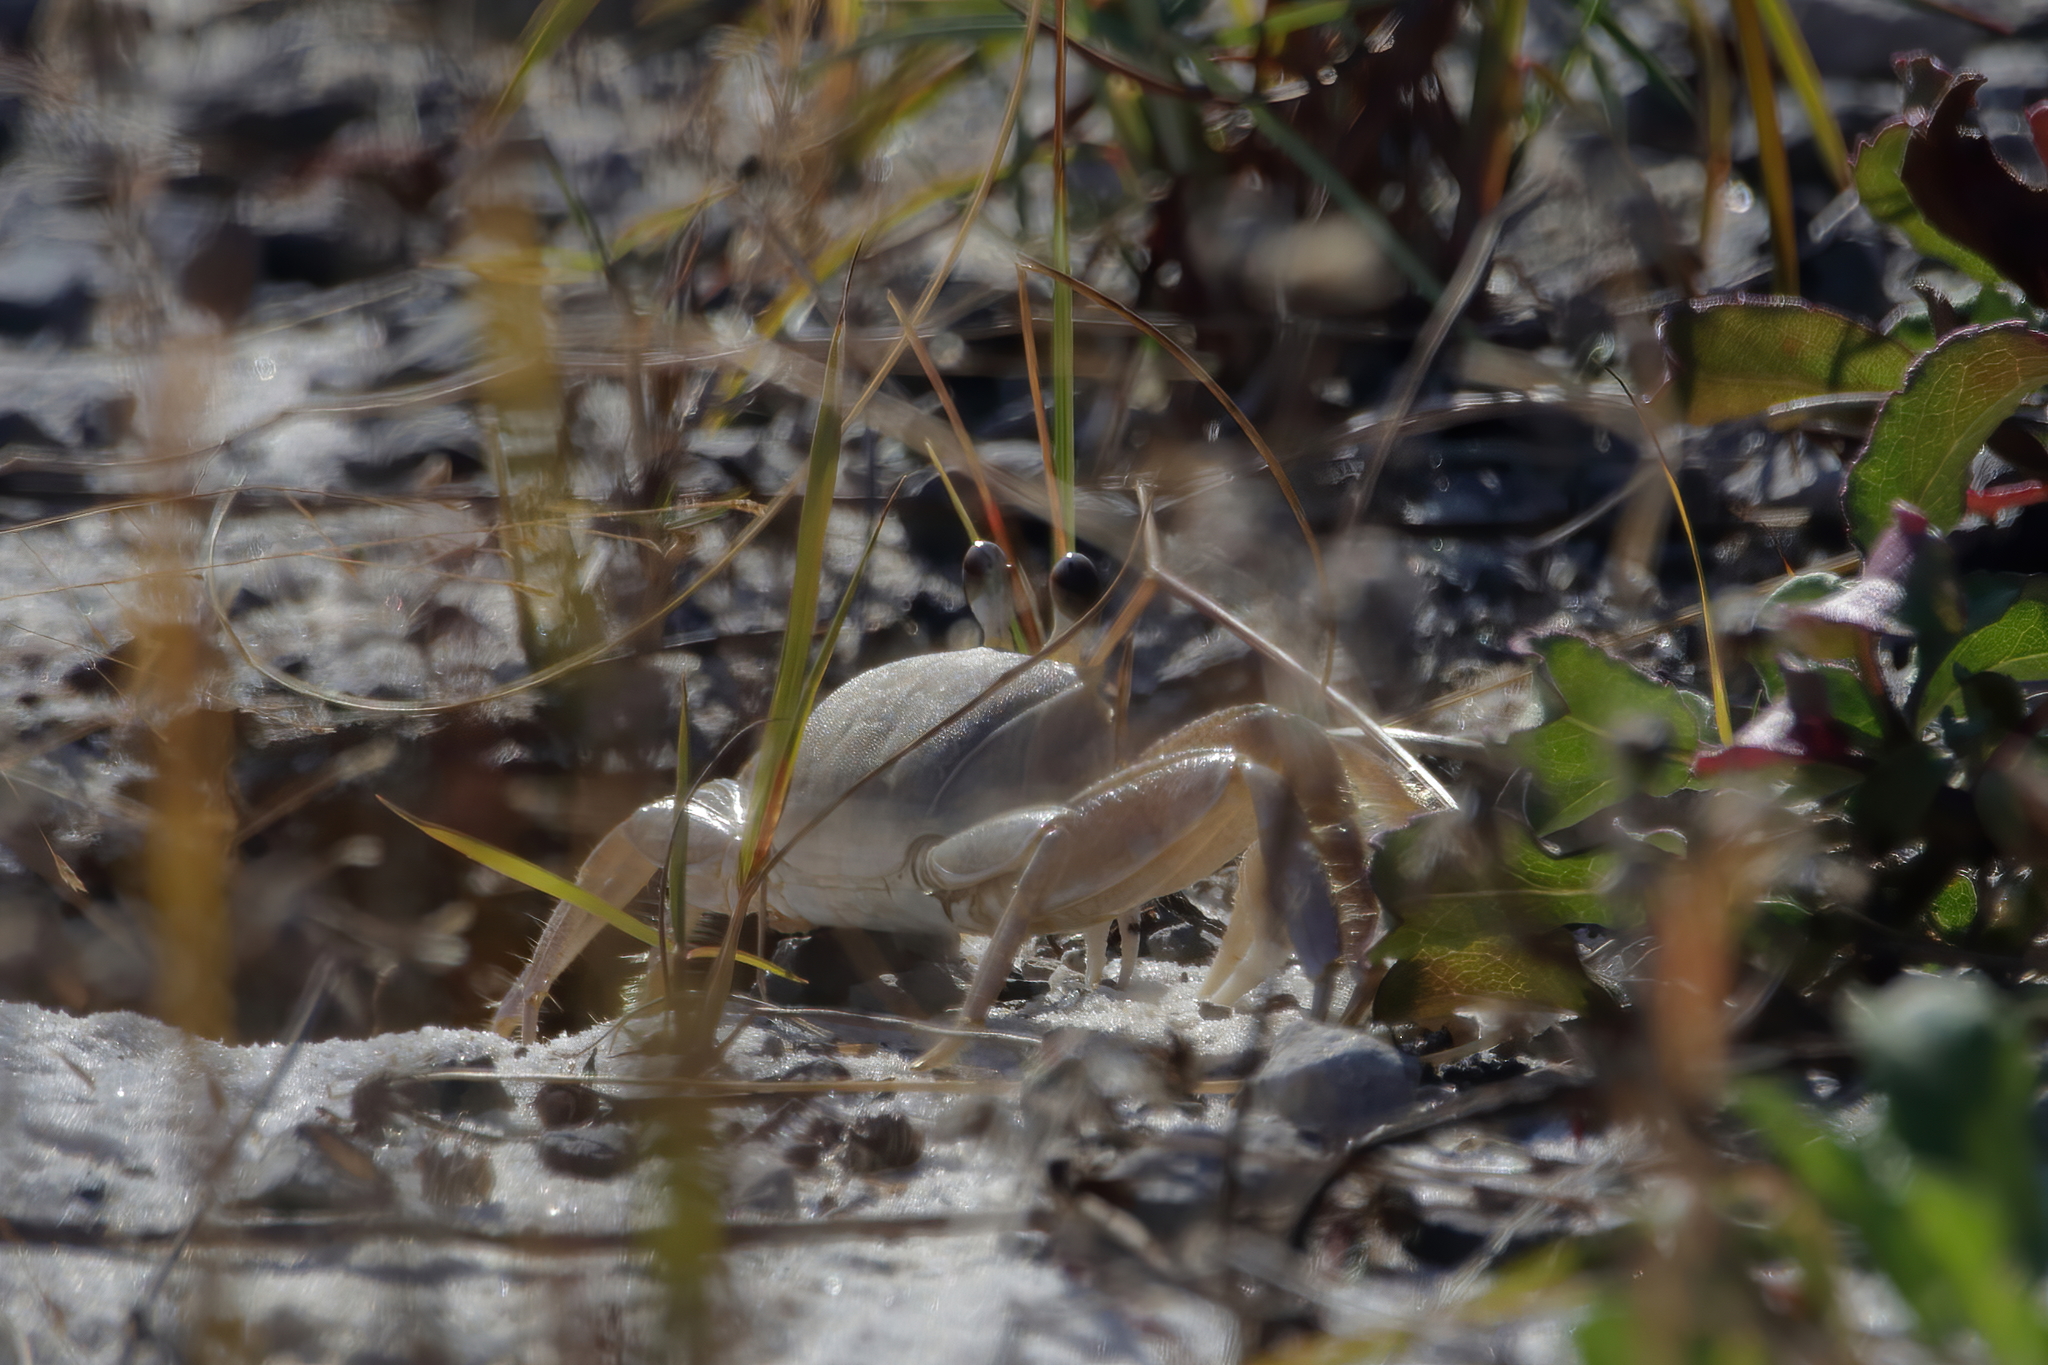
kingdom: Animalia
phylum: Arthropoda
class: Malacostraca
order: Decapoda
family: Ocypodidae
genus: Ocypode
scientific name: Ocypode quadrata
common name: Ghost crab
